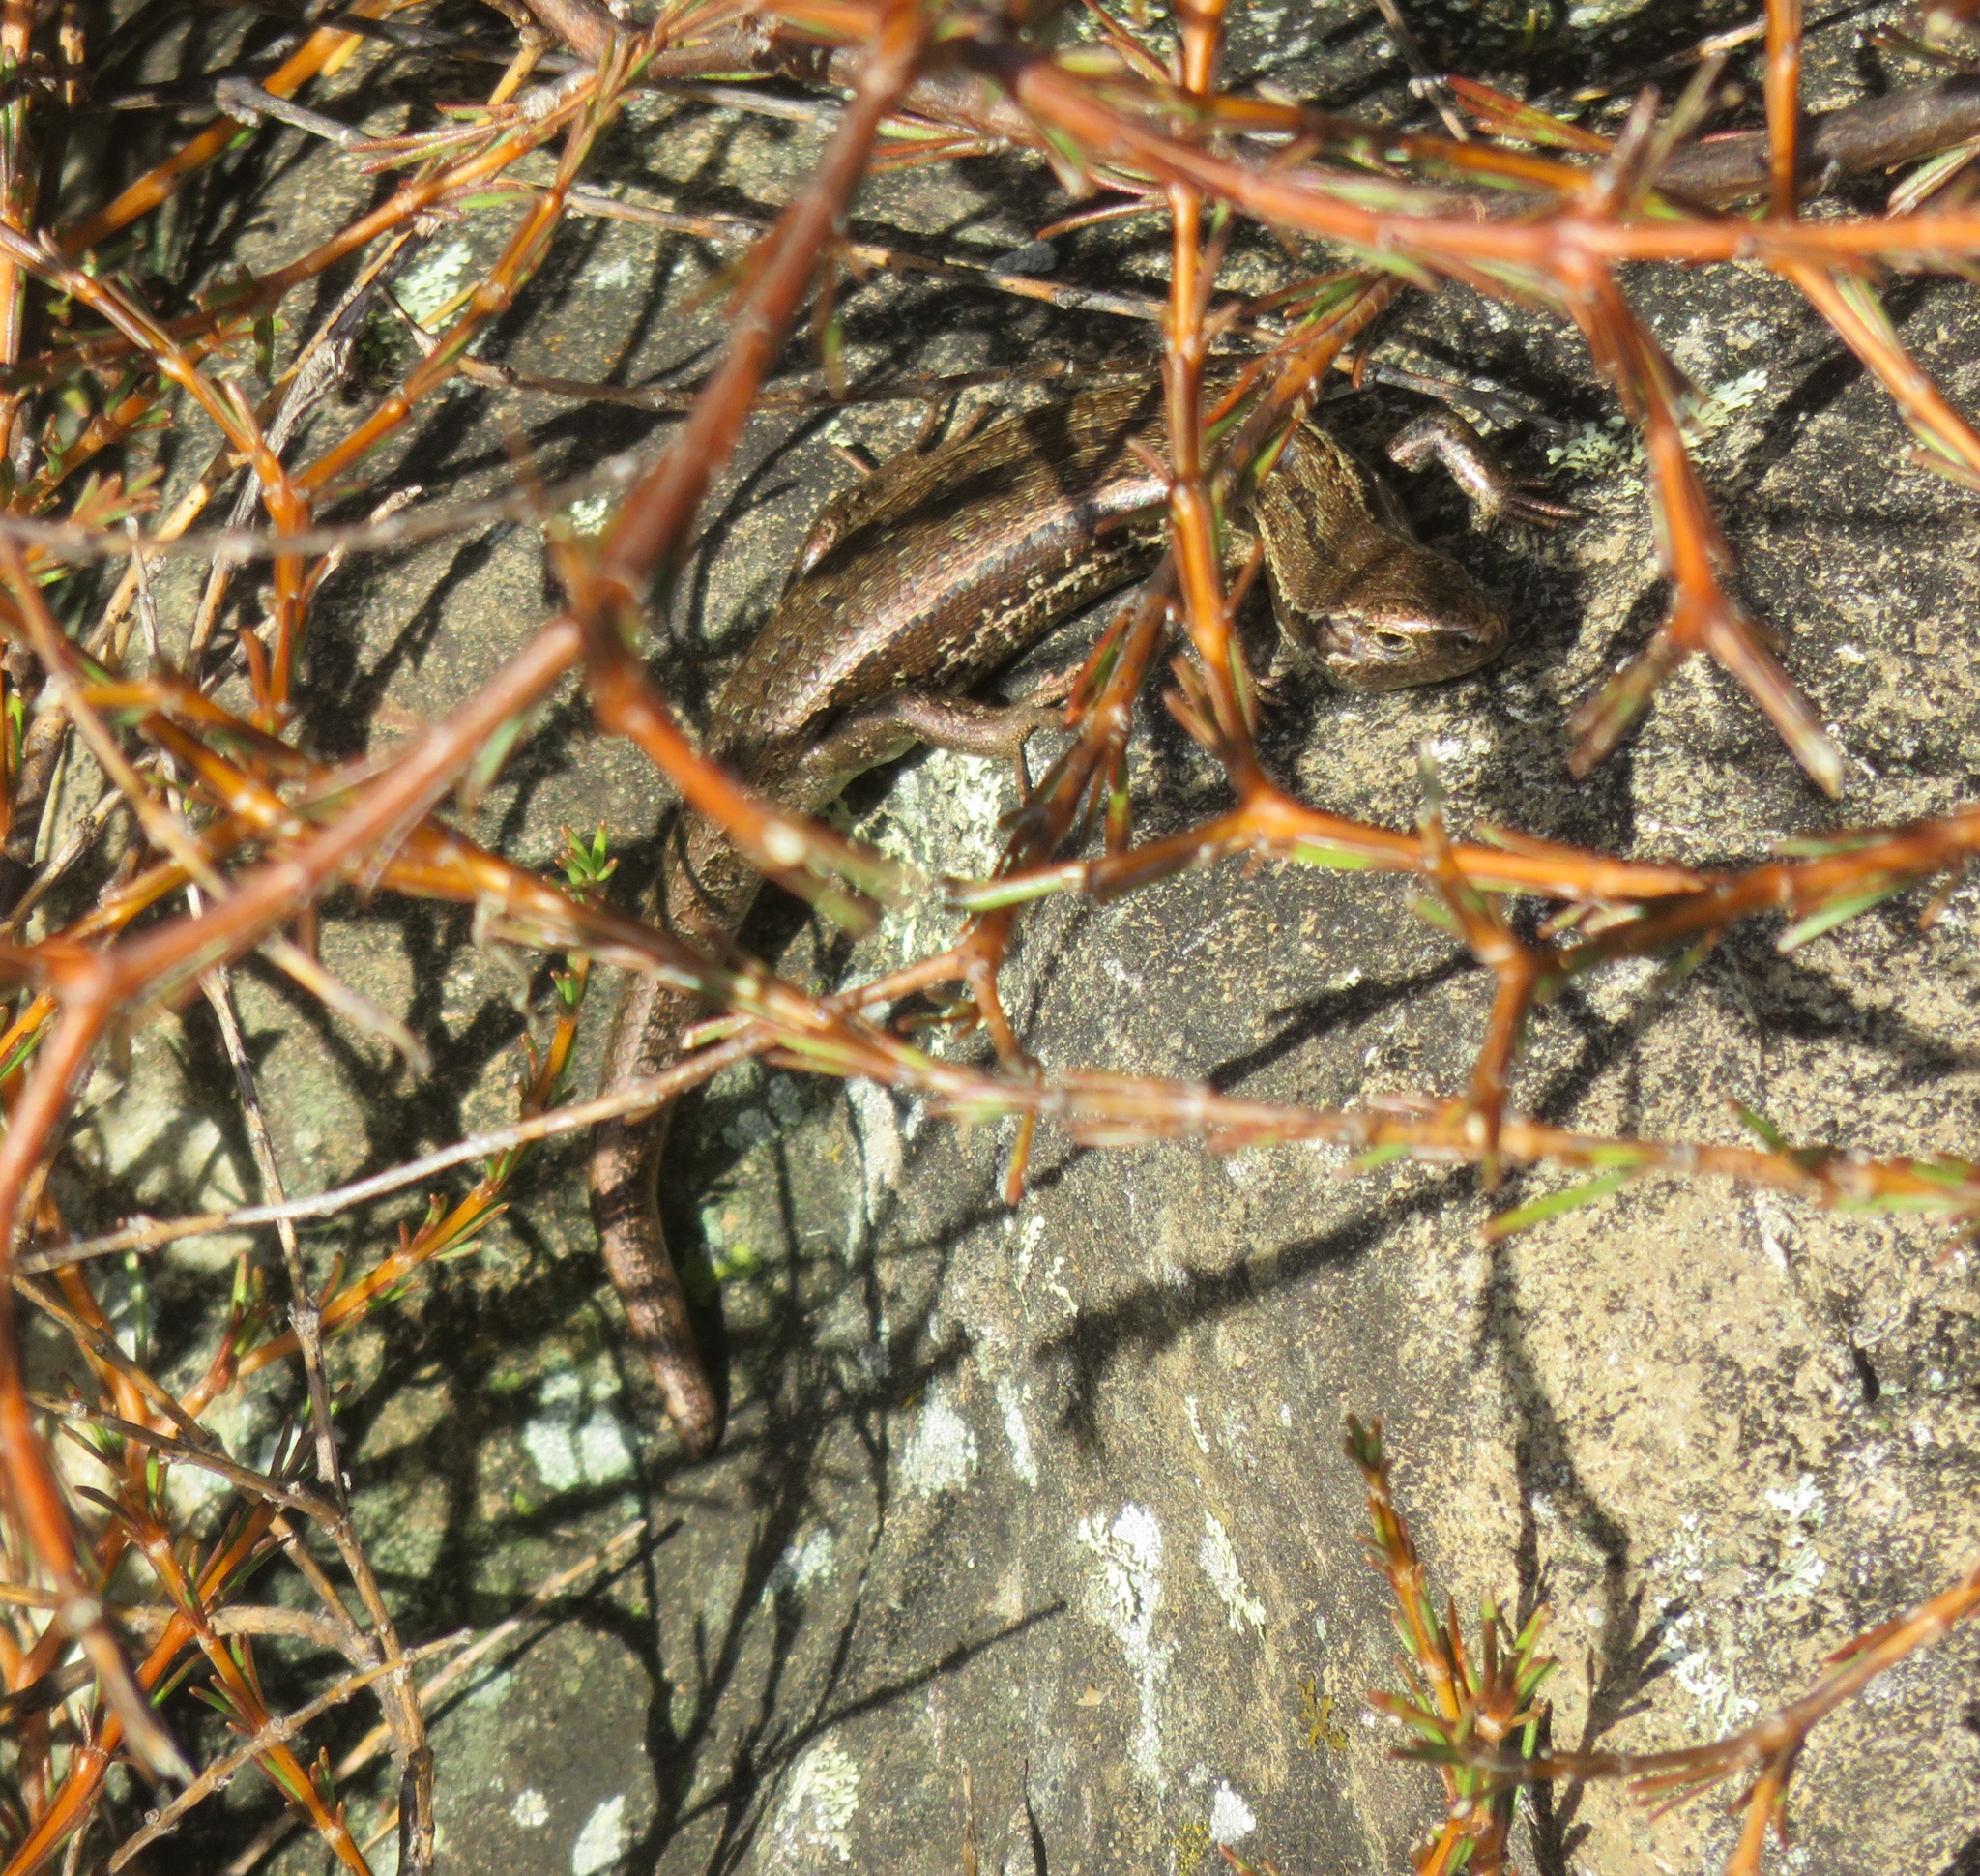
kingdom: Animalia
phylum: Chordata
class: Squamata
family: Scincidae
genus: Oligosoma
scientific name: Oligosoma polychroma
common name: Common new zealand skink
